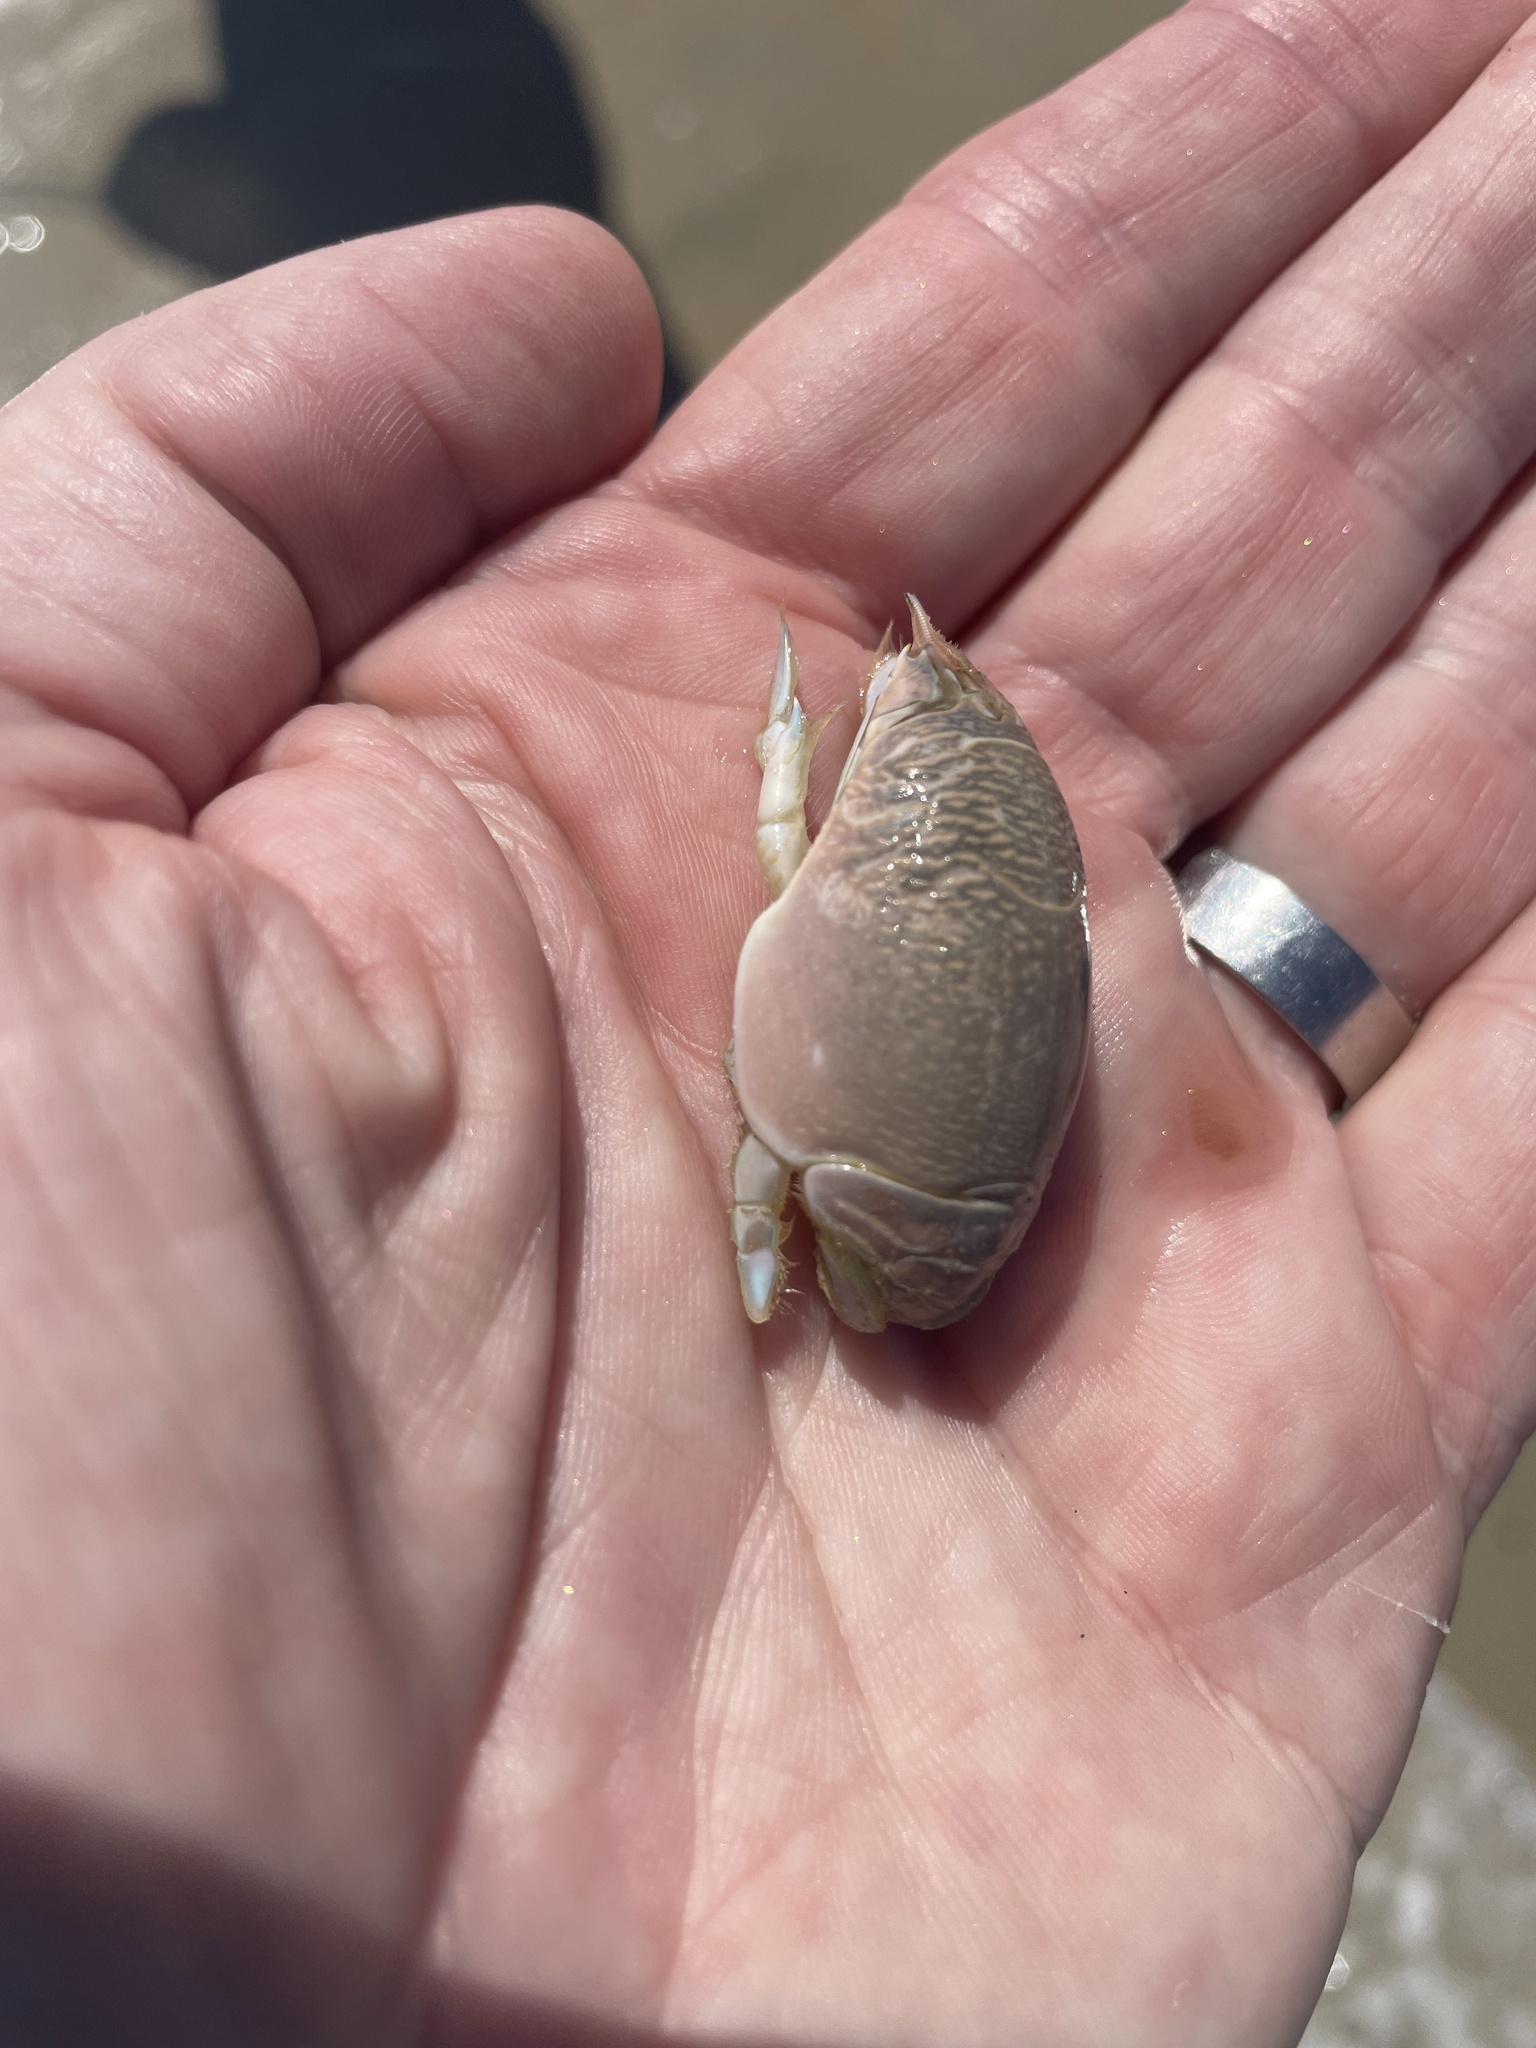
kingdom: Animalia
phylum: Arthropoda
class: Malacostraca
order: Decapoda
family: Hippidae
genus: Emerita
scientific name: Emerita talpoida
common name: Atlantic sand crab
